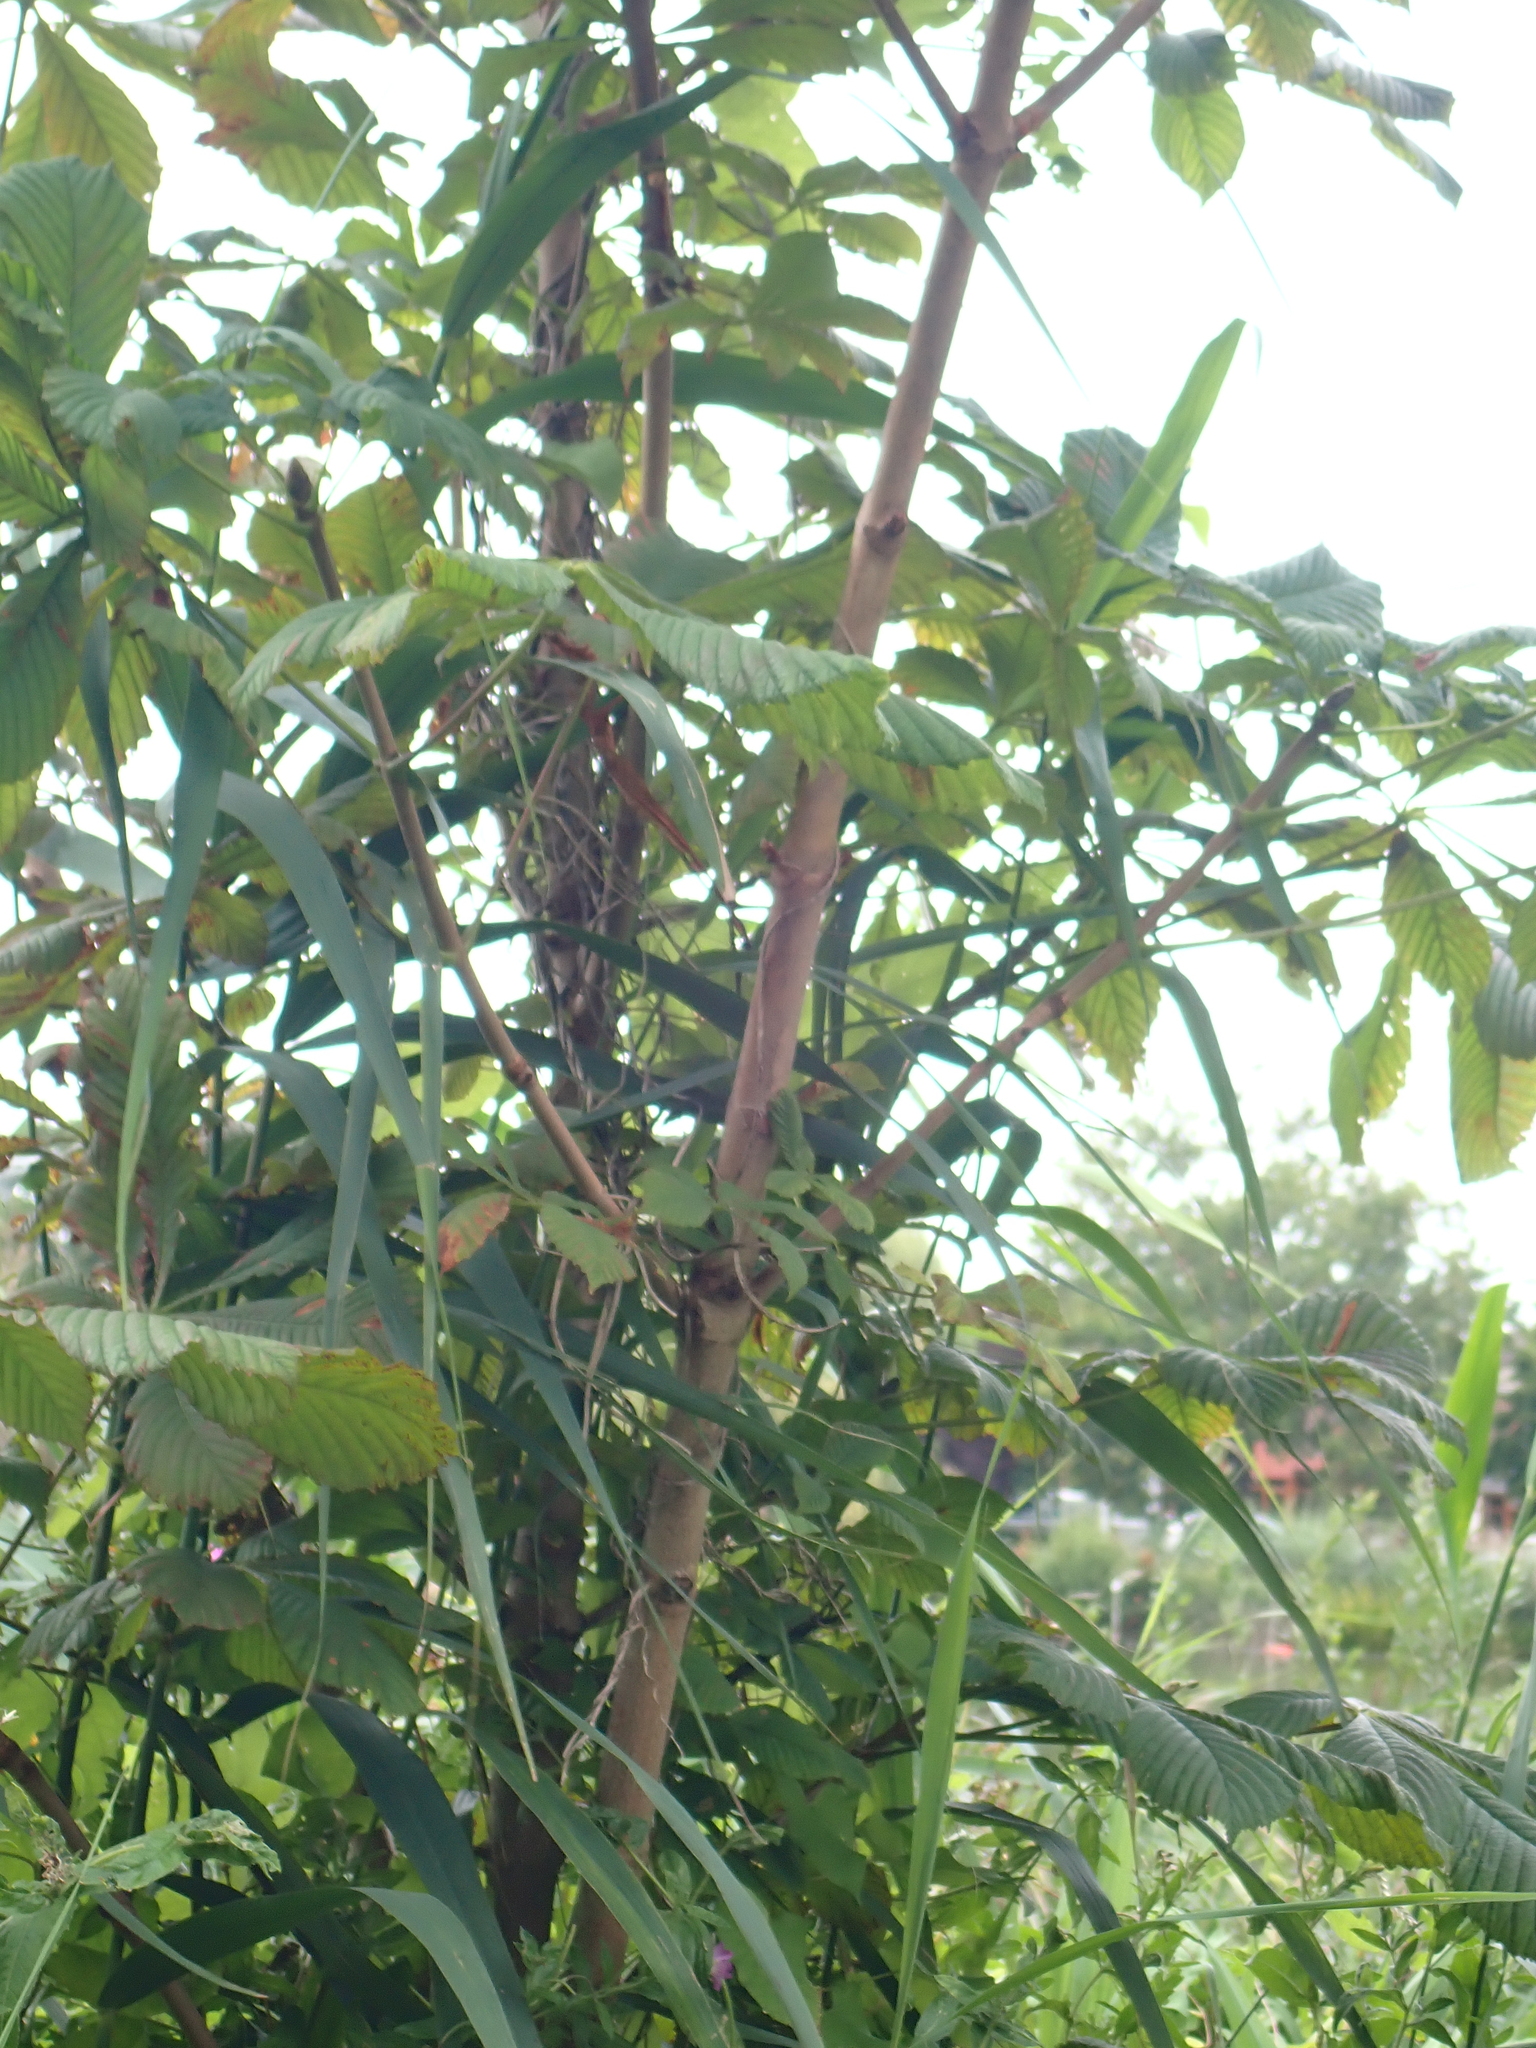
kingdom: Plantae
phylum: Tracheophyta
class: Magnoliopsida
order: Sapindales
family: Sapindaceae
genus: Aesculus
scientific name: Aesculus hippocastanum
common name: Horse-chestnut
